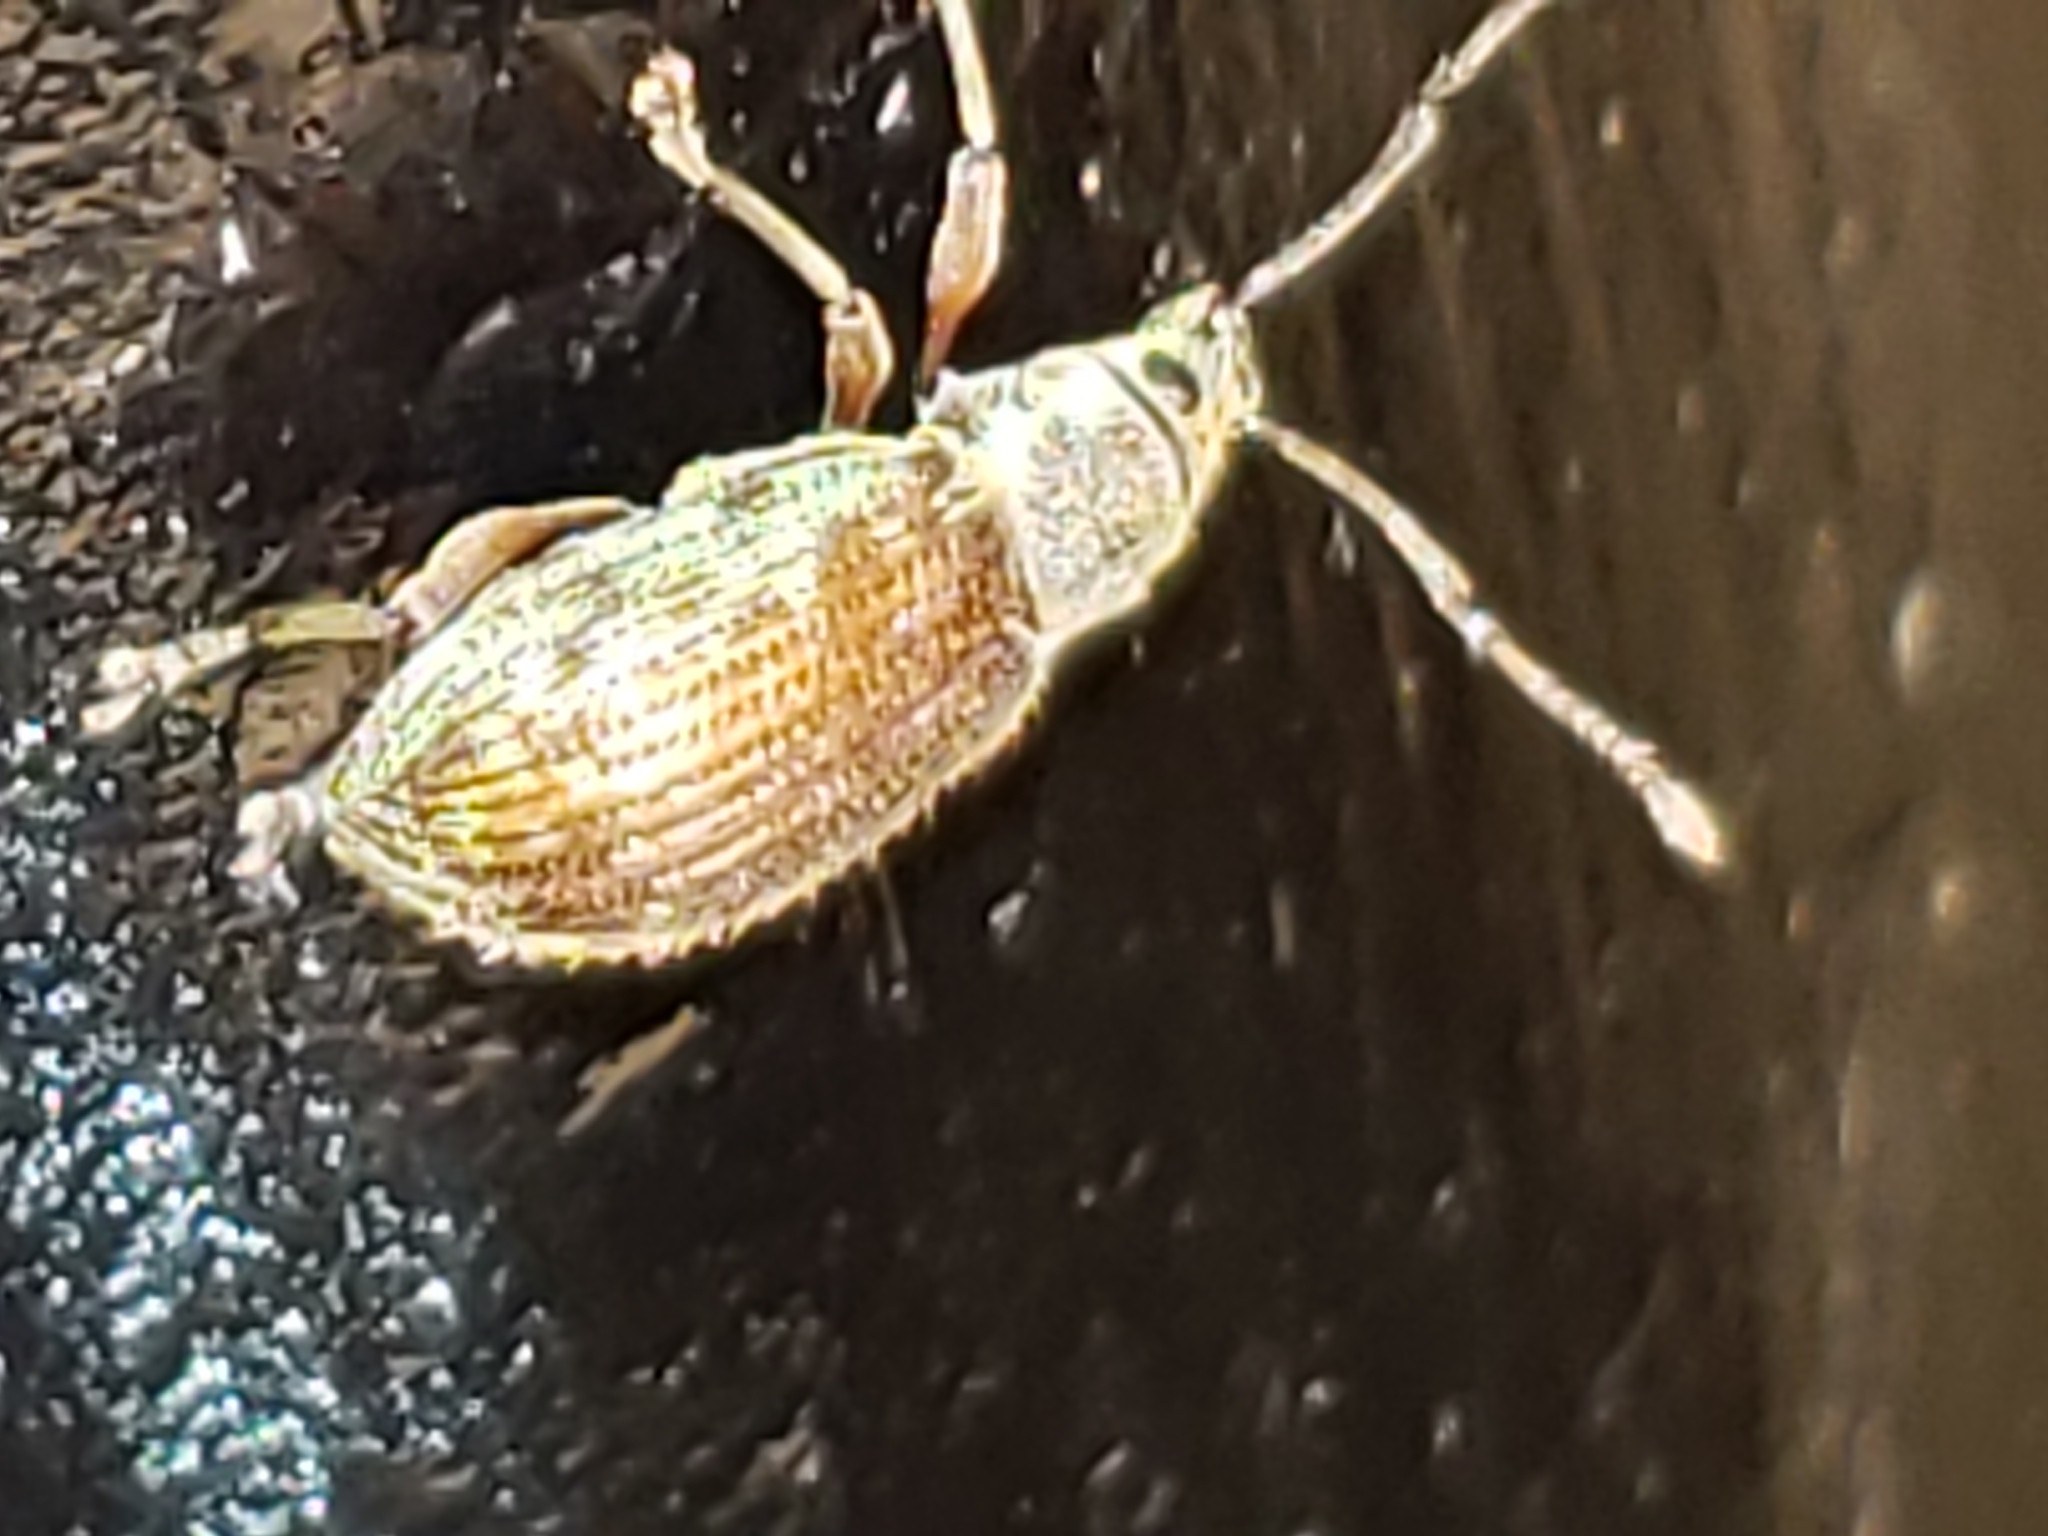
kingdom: Animalia
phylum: Arthropoda
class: Insecta
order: Coleoptera
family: Curculionidae
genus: Cyrtepistomus
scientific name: Cyrtepistomus castaneus
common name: Weevil
